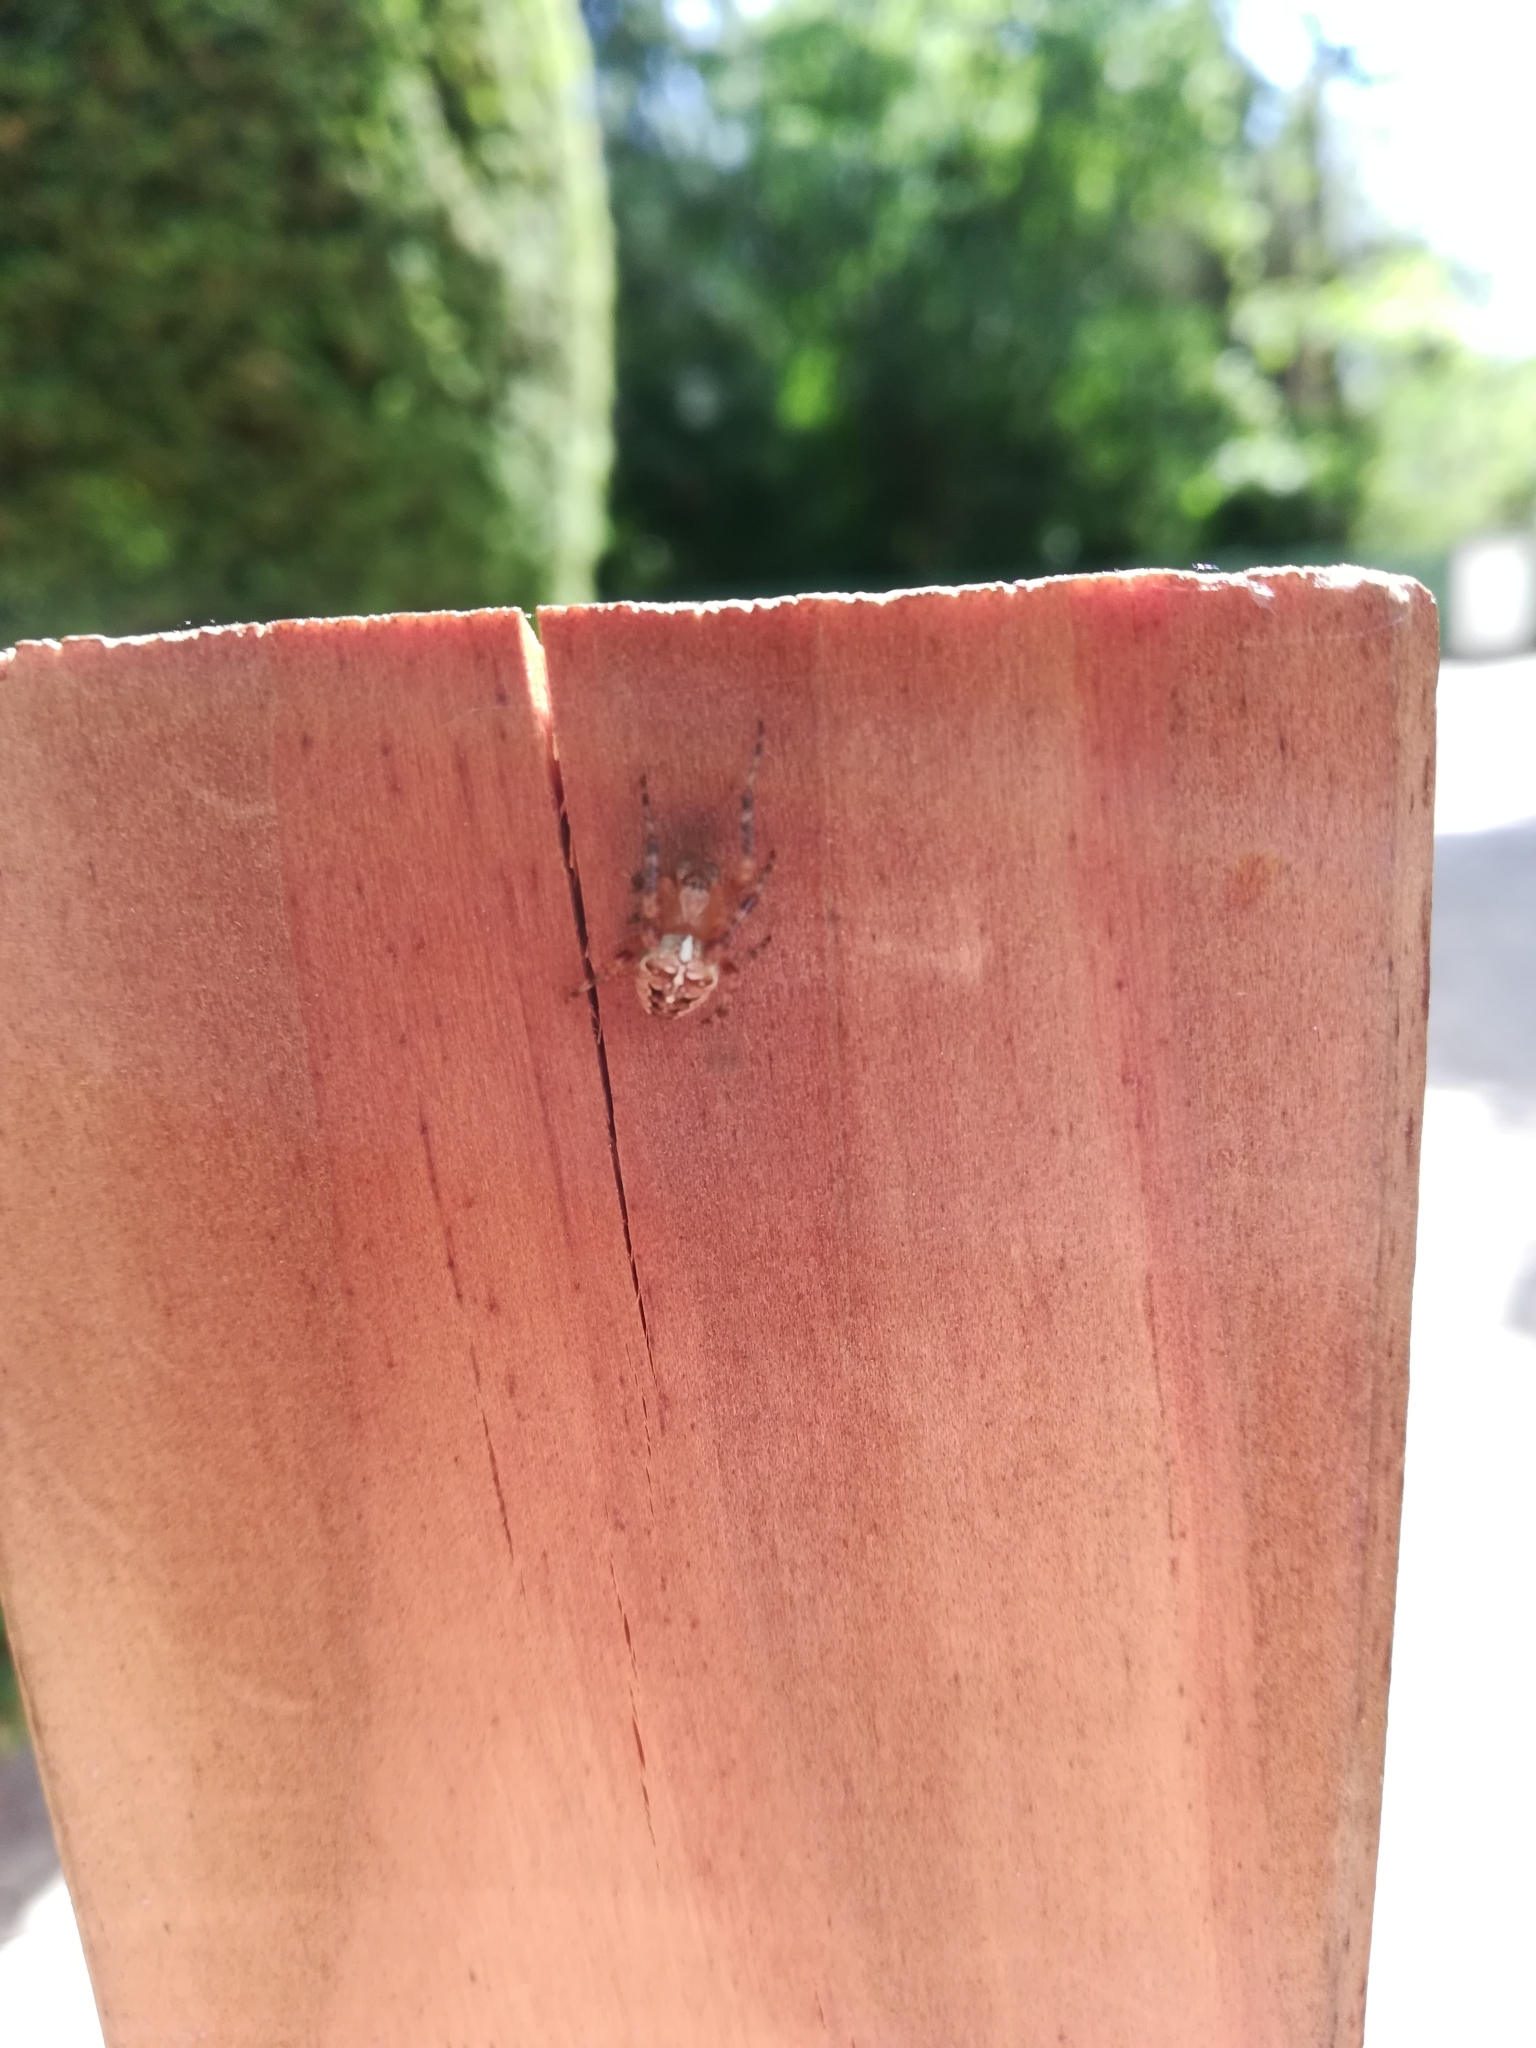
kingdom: Animalia
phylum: Arthropoda
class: Arachnida
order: Araneae
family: Araneidae
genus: Araneus
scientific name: Araneus diadematus
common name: Cross orbweaver
